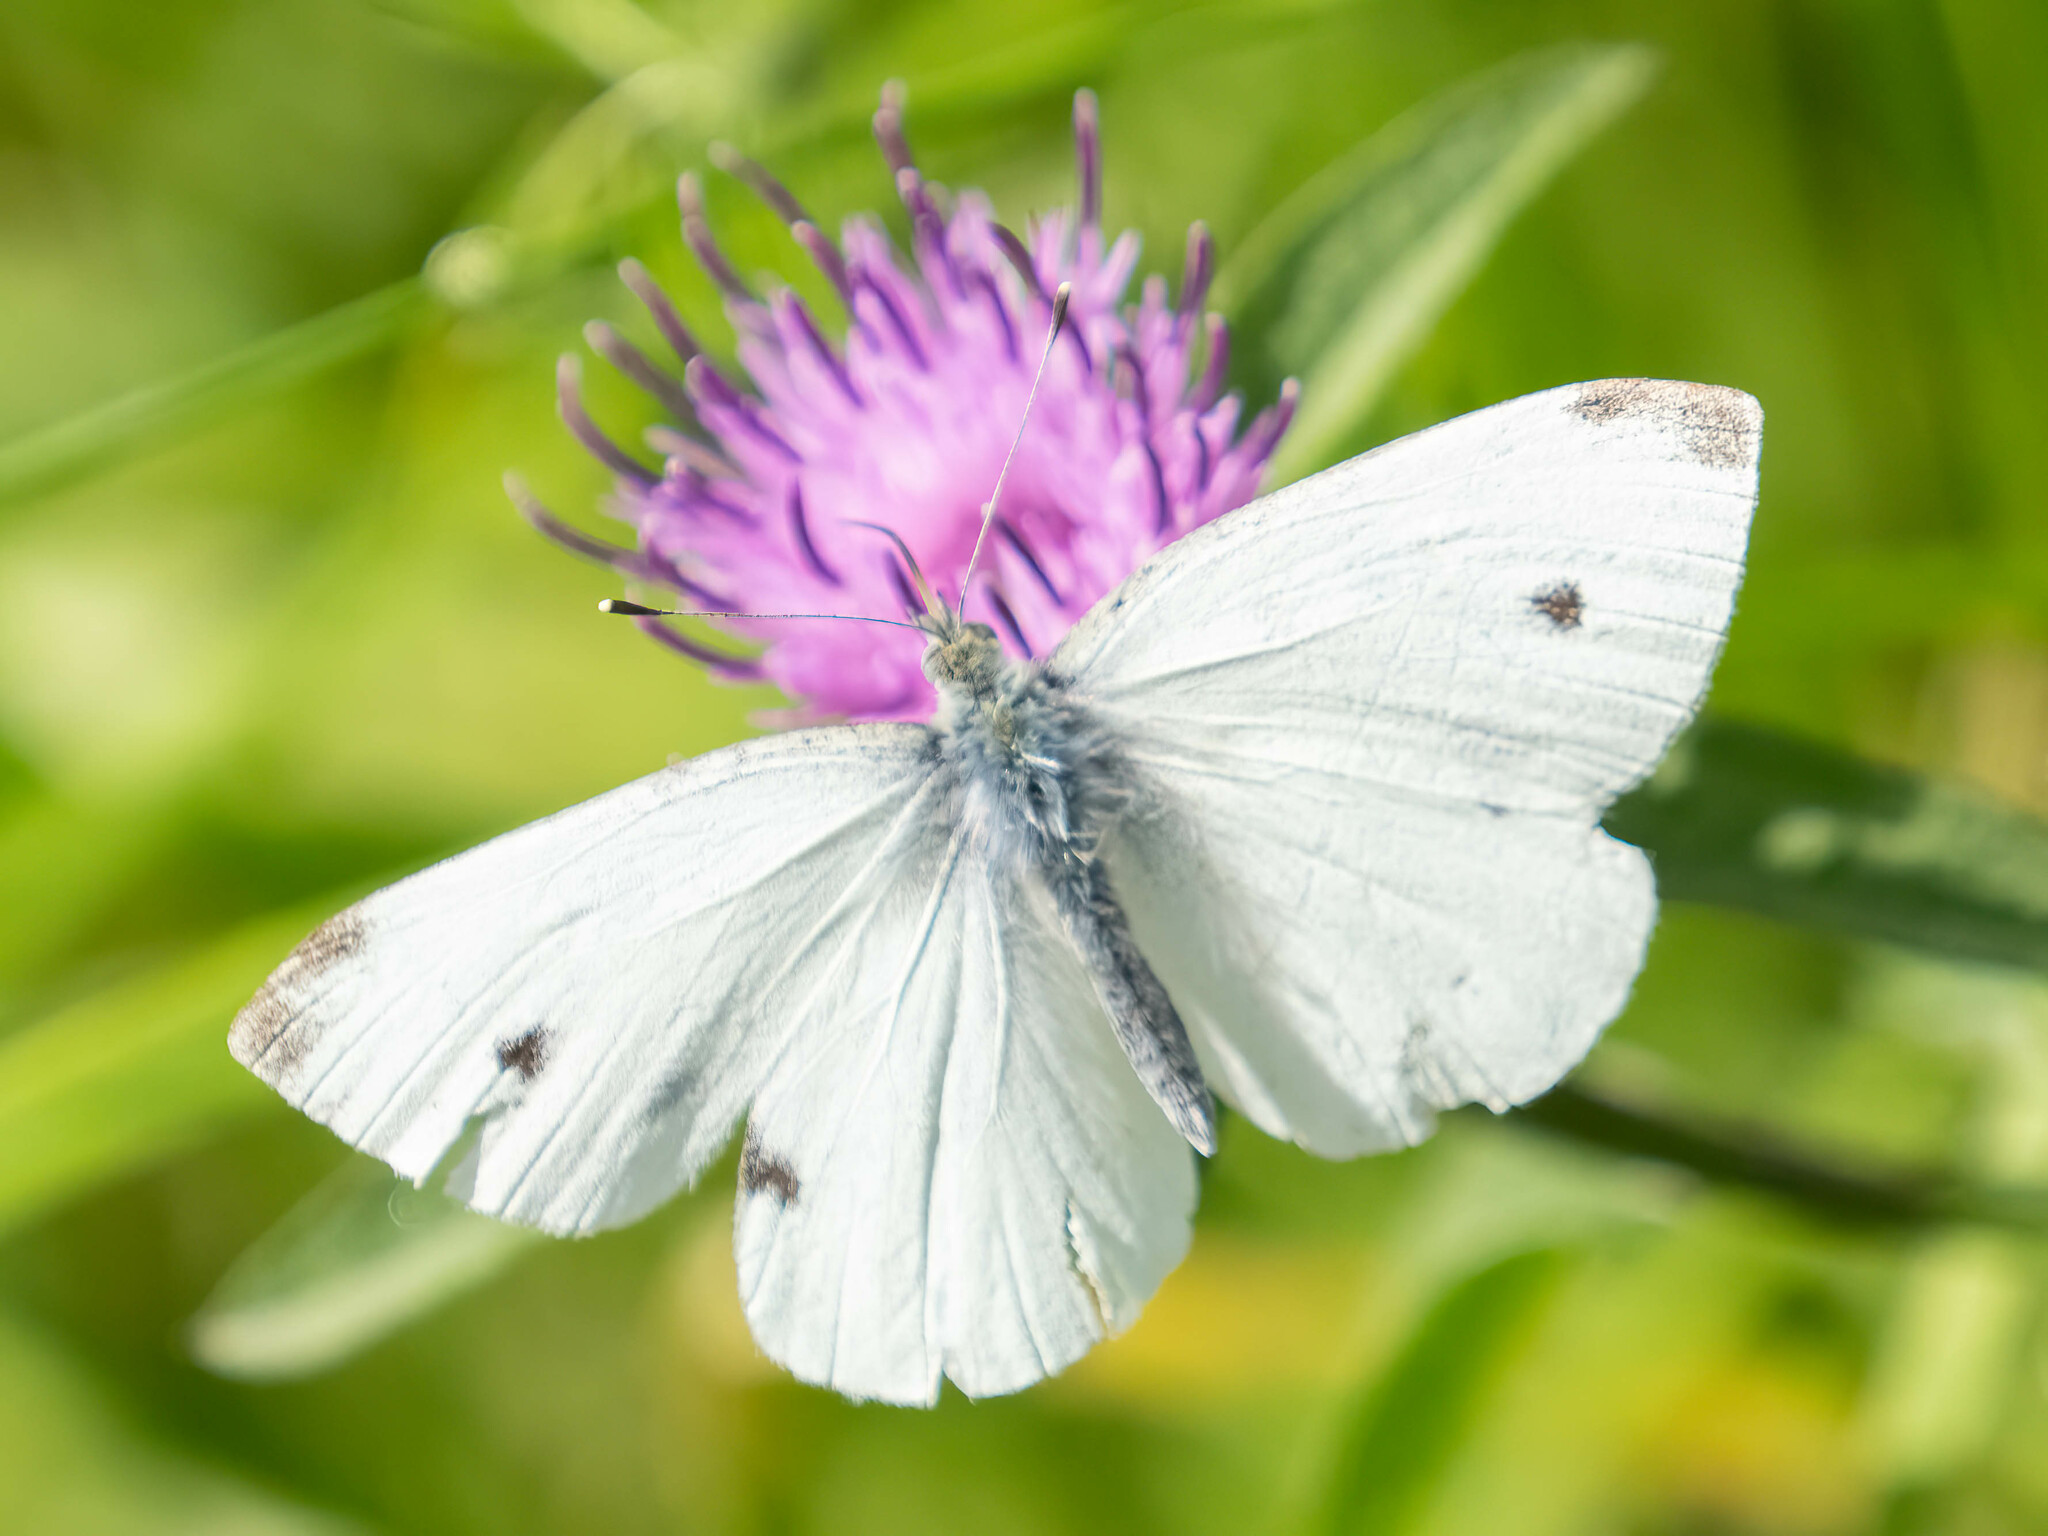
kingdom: Animalia
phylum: Arthropoda
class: Insecta
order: Lepidoptera
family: Pieridae
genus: Pieris
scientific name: Pieris rapae
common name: Small white
